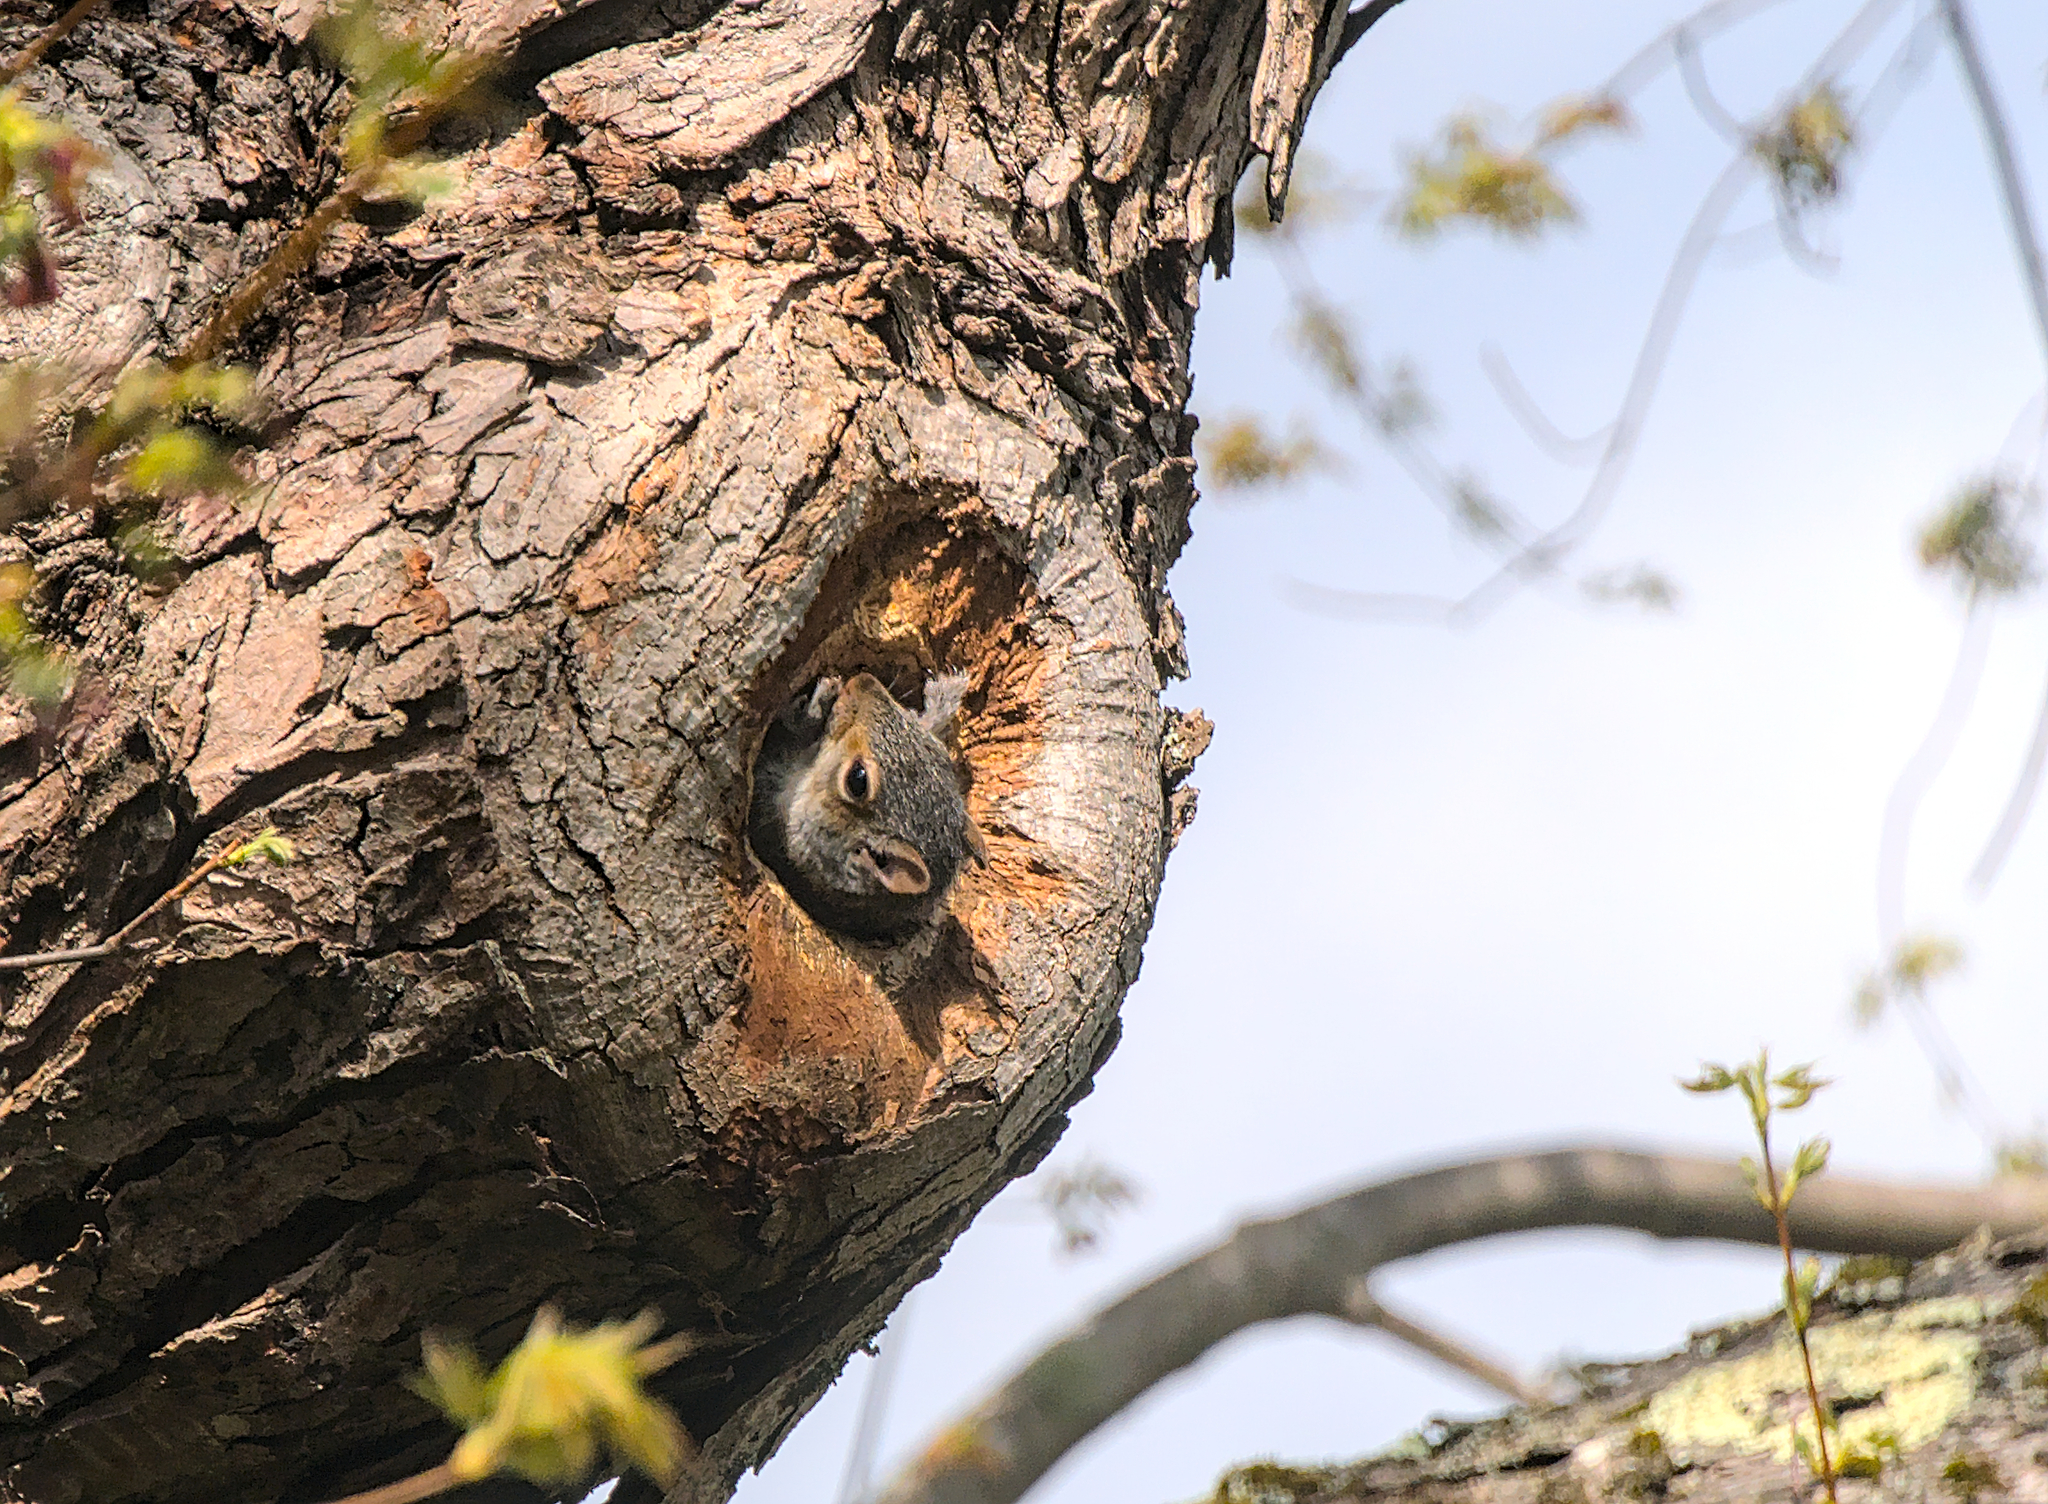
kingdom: Animalia
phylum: Chordata
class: Mammalia
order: Rodentia
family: Sciuridae
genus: Sciurus
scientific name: Sciurus carolinensis
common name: Eastern gray squirrel
